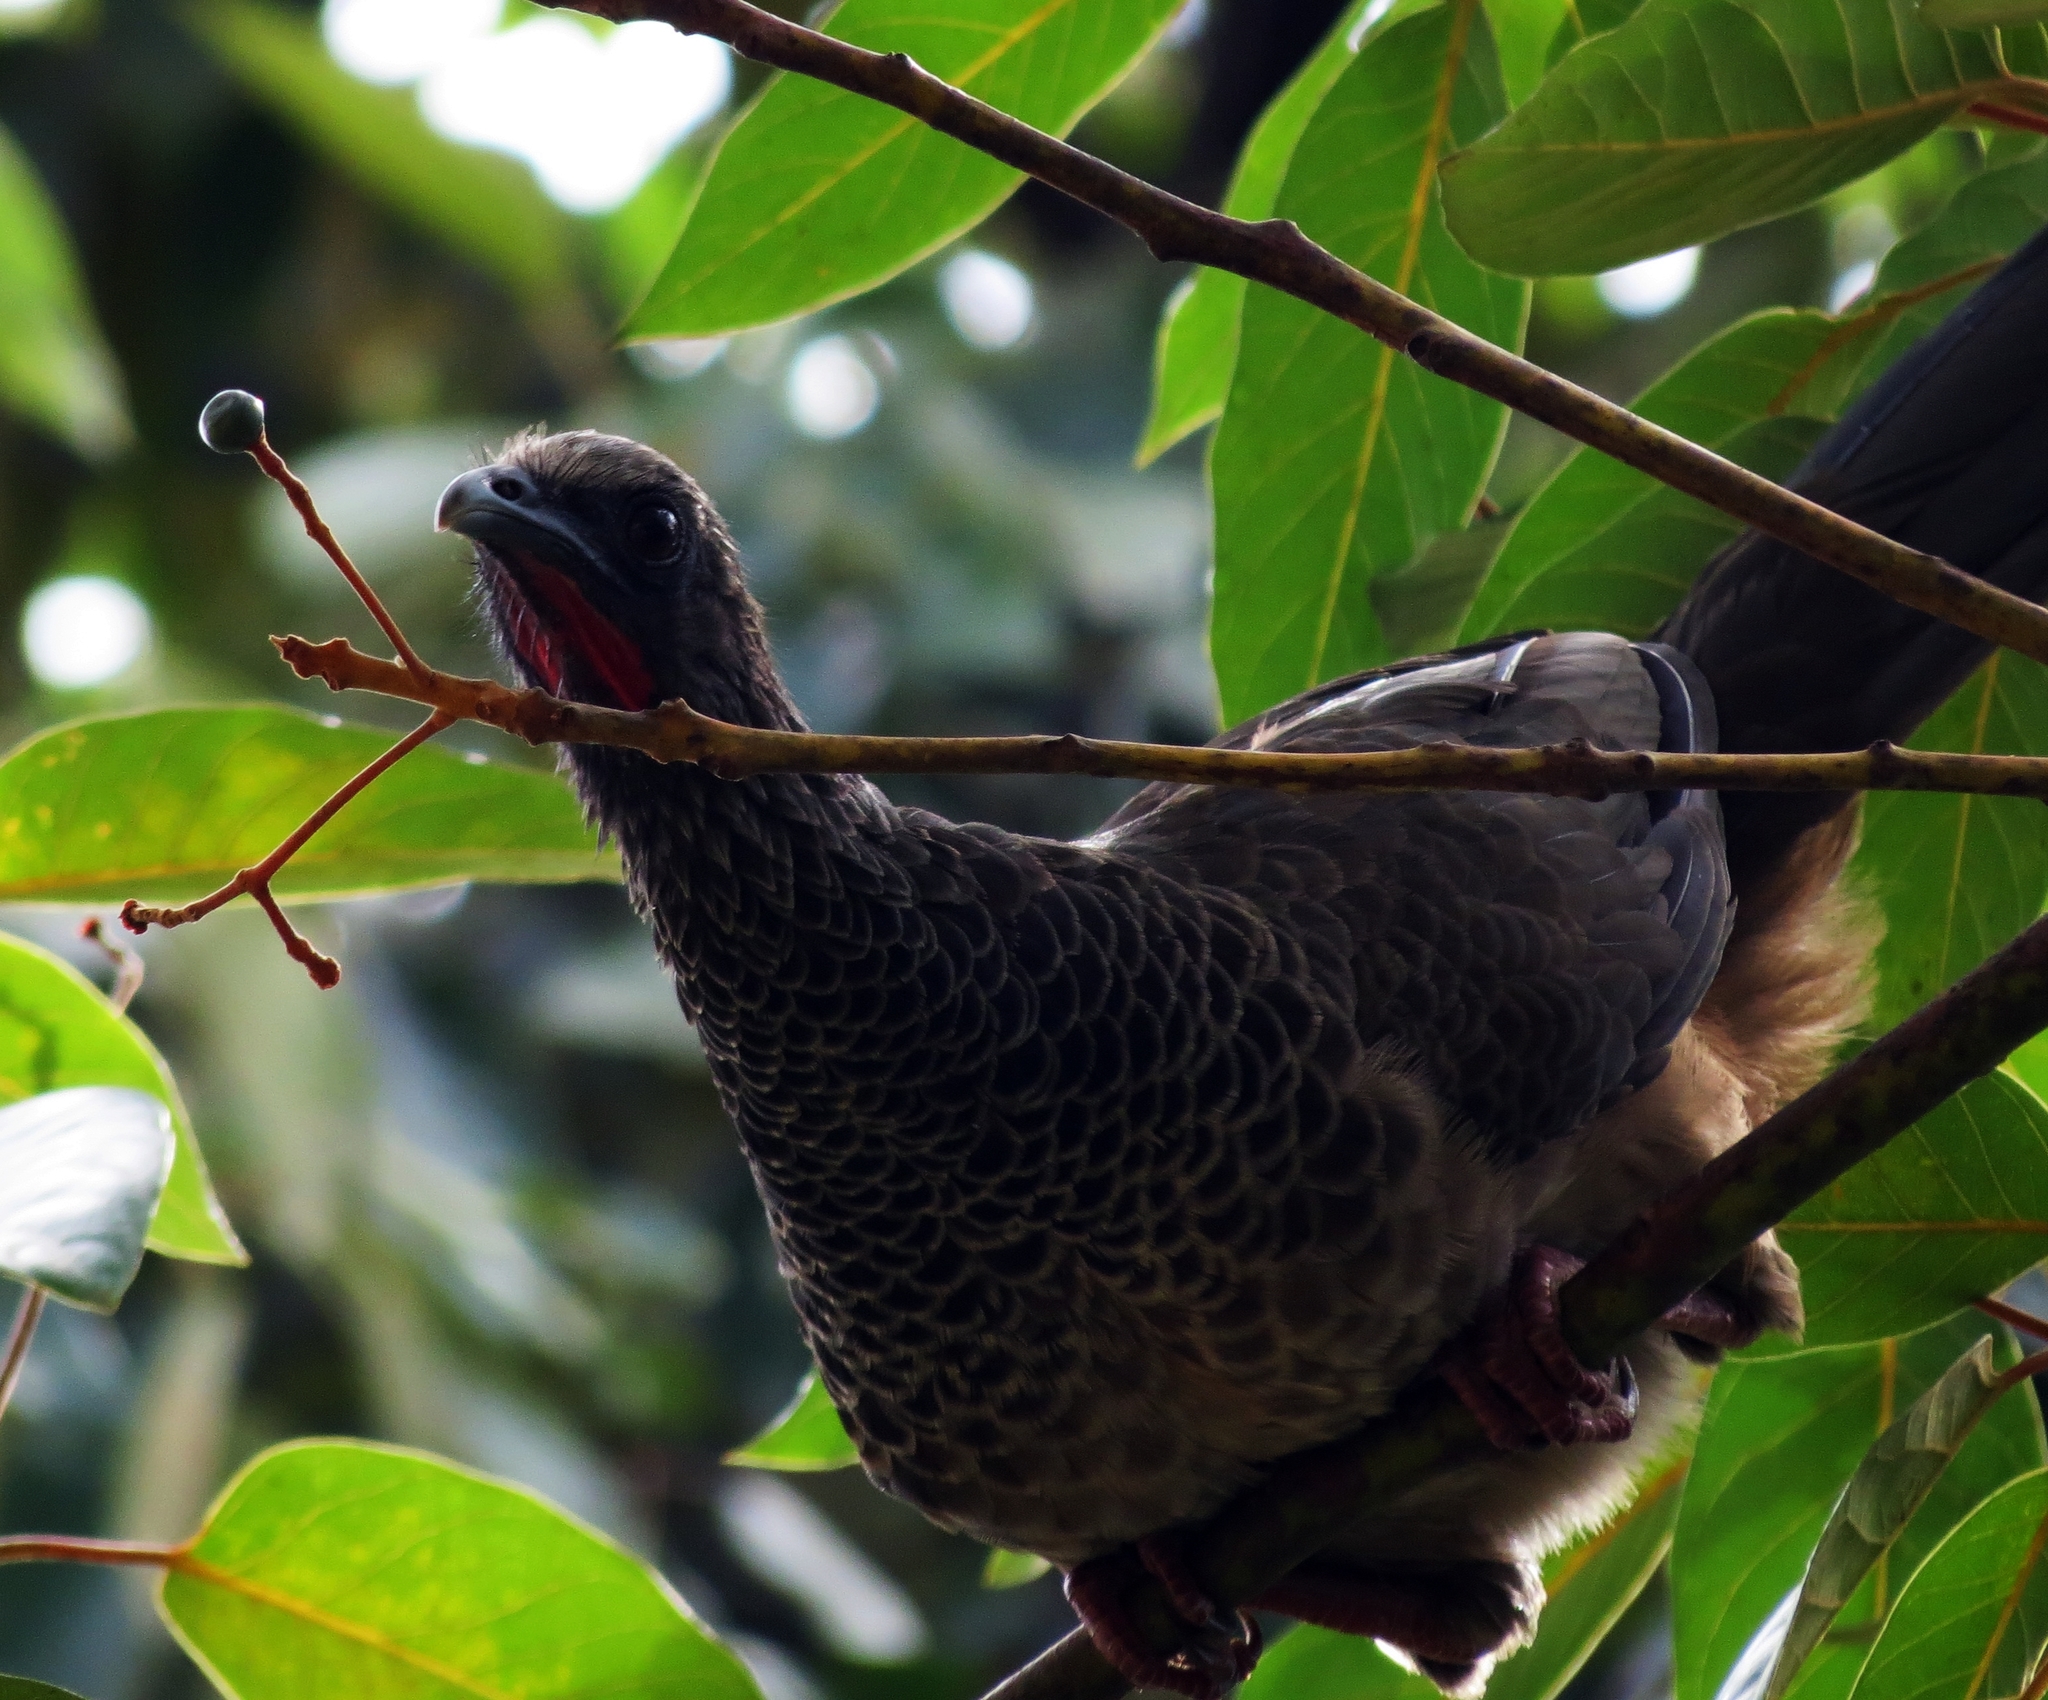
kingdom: Animalia
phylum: Chordata
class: Aves
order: Galliformes
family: Cracidae
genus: Ortalis
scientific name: Ortalis columbiana
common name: Colombian chachalaca
